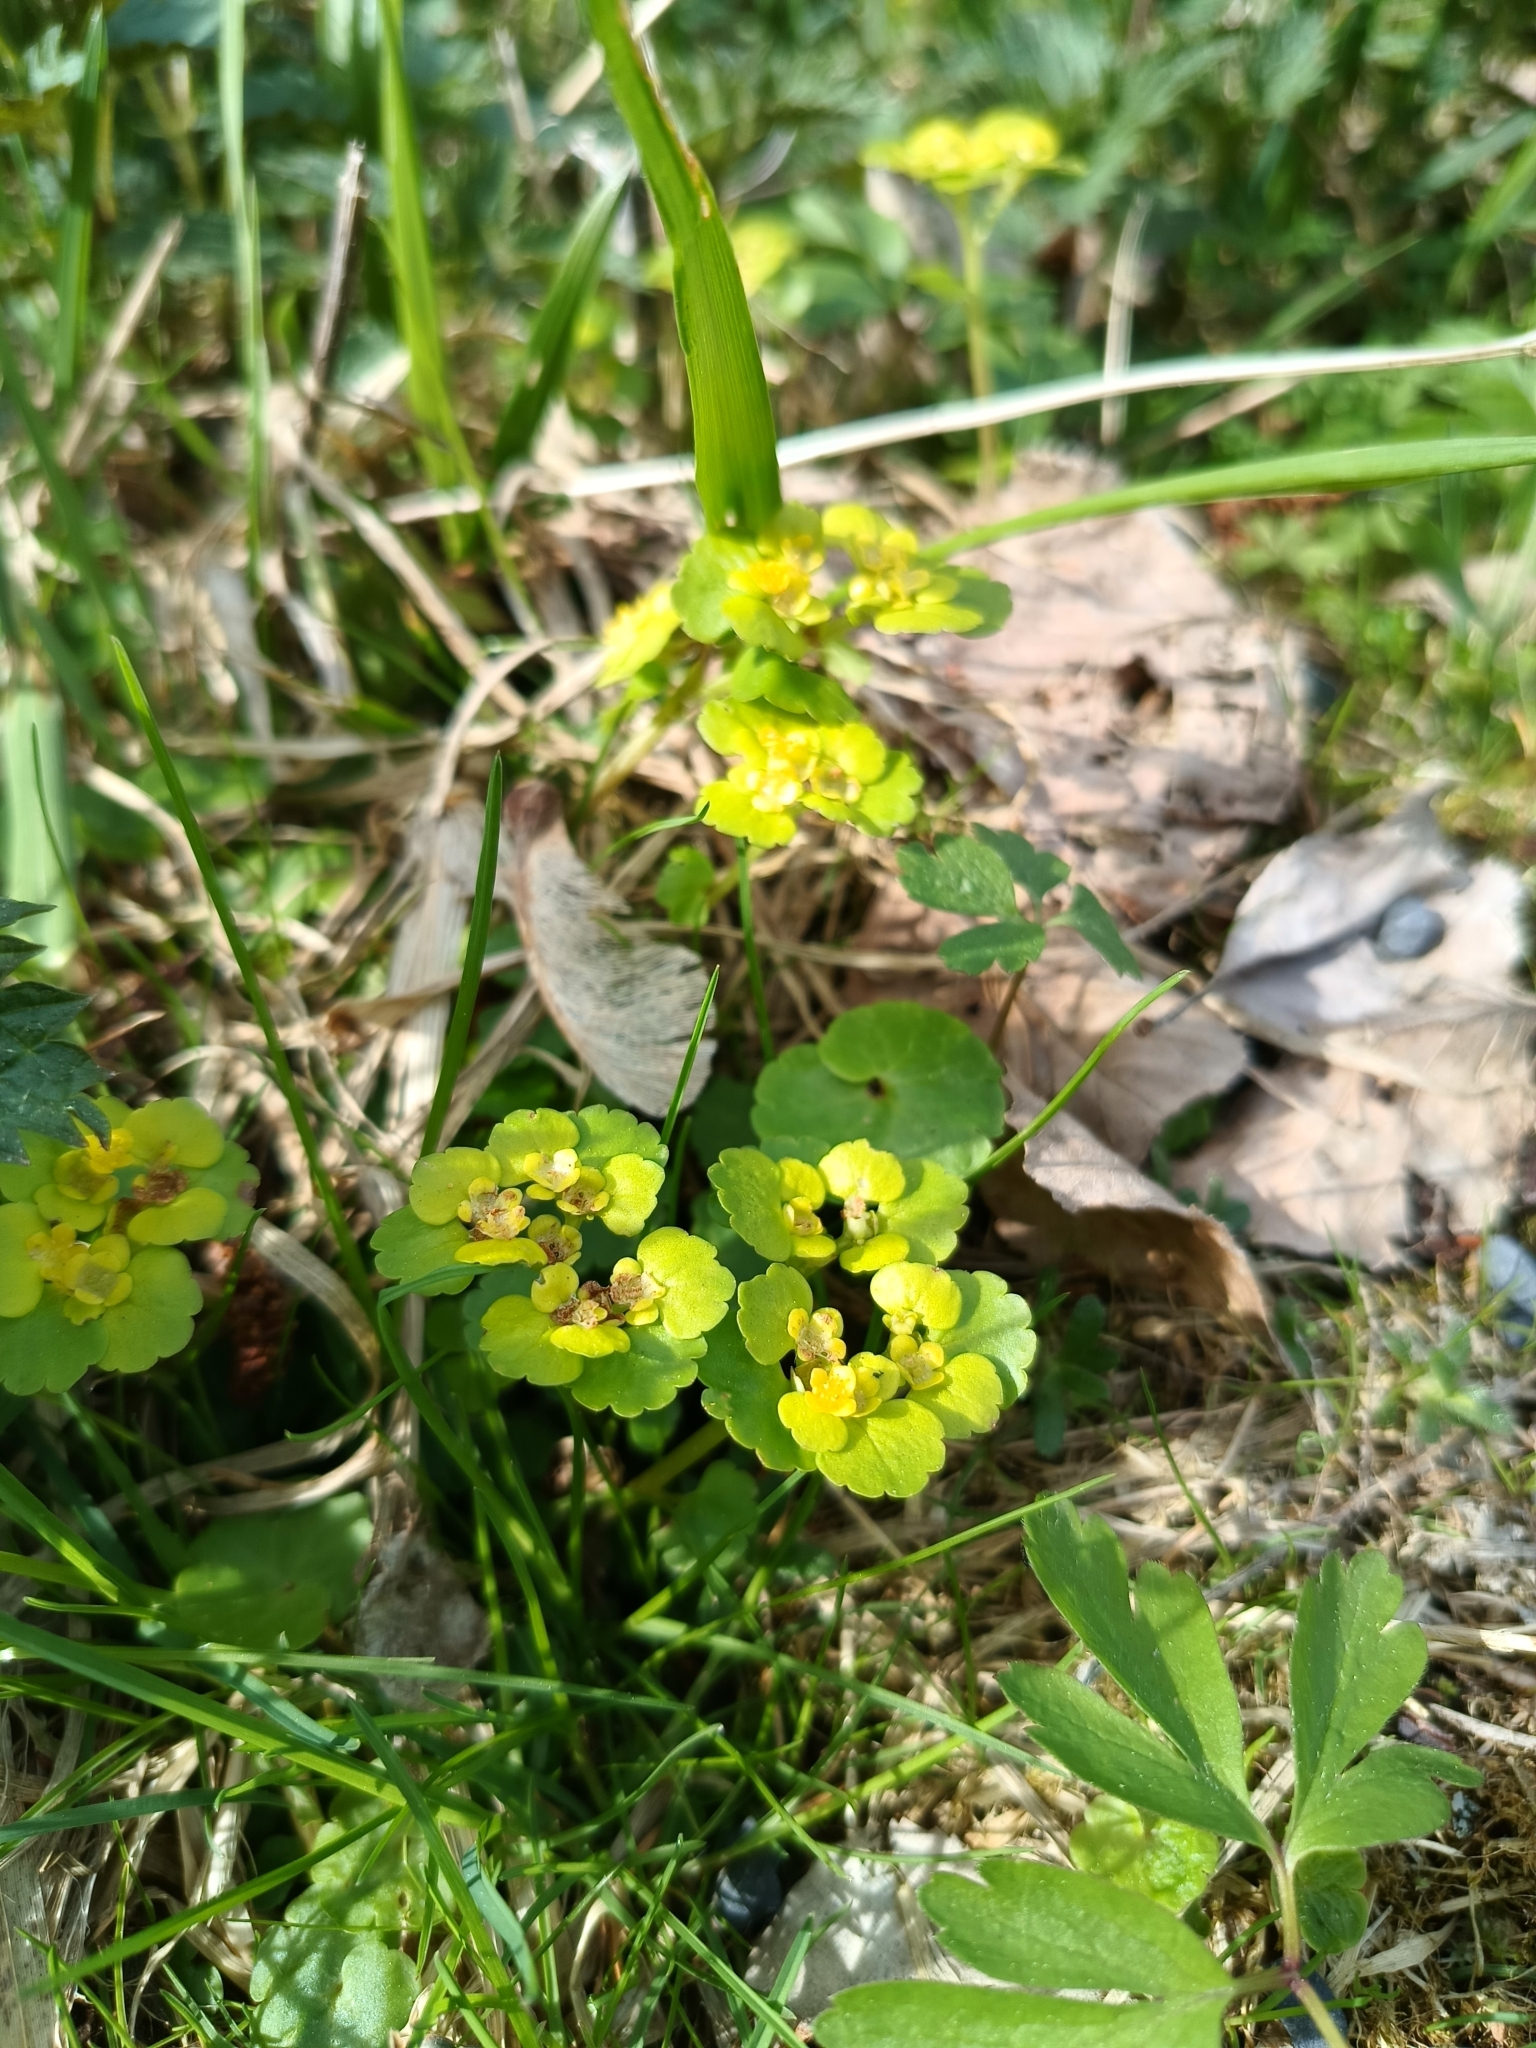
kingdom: Plantae
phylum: Tracheophyta
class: Magnoliopsida
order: Saxifragales
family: Saxifragaceae
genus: Chrysosplenium
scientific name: Chrysosplenium alternifolium
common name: Alternate-leaved golden-saxifrage
